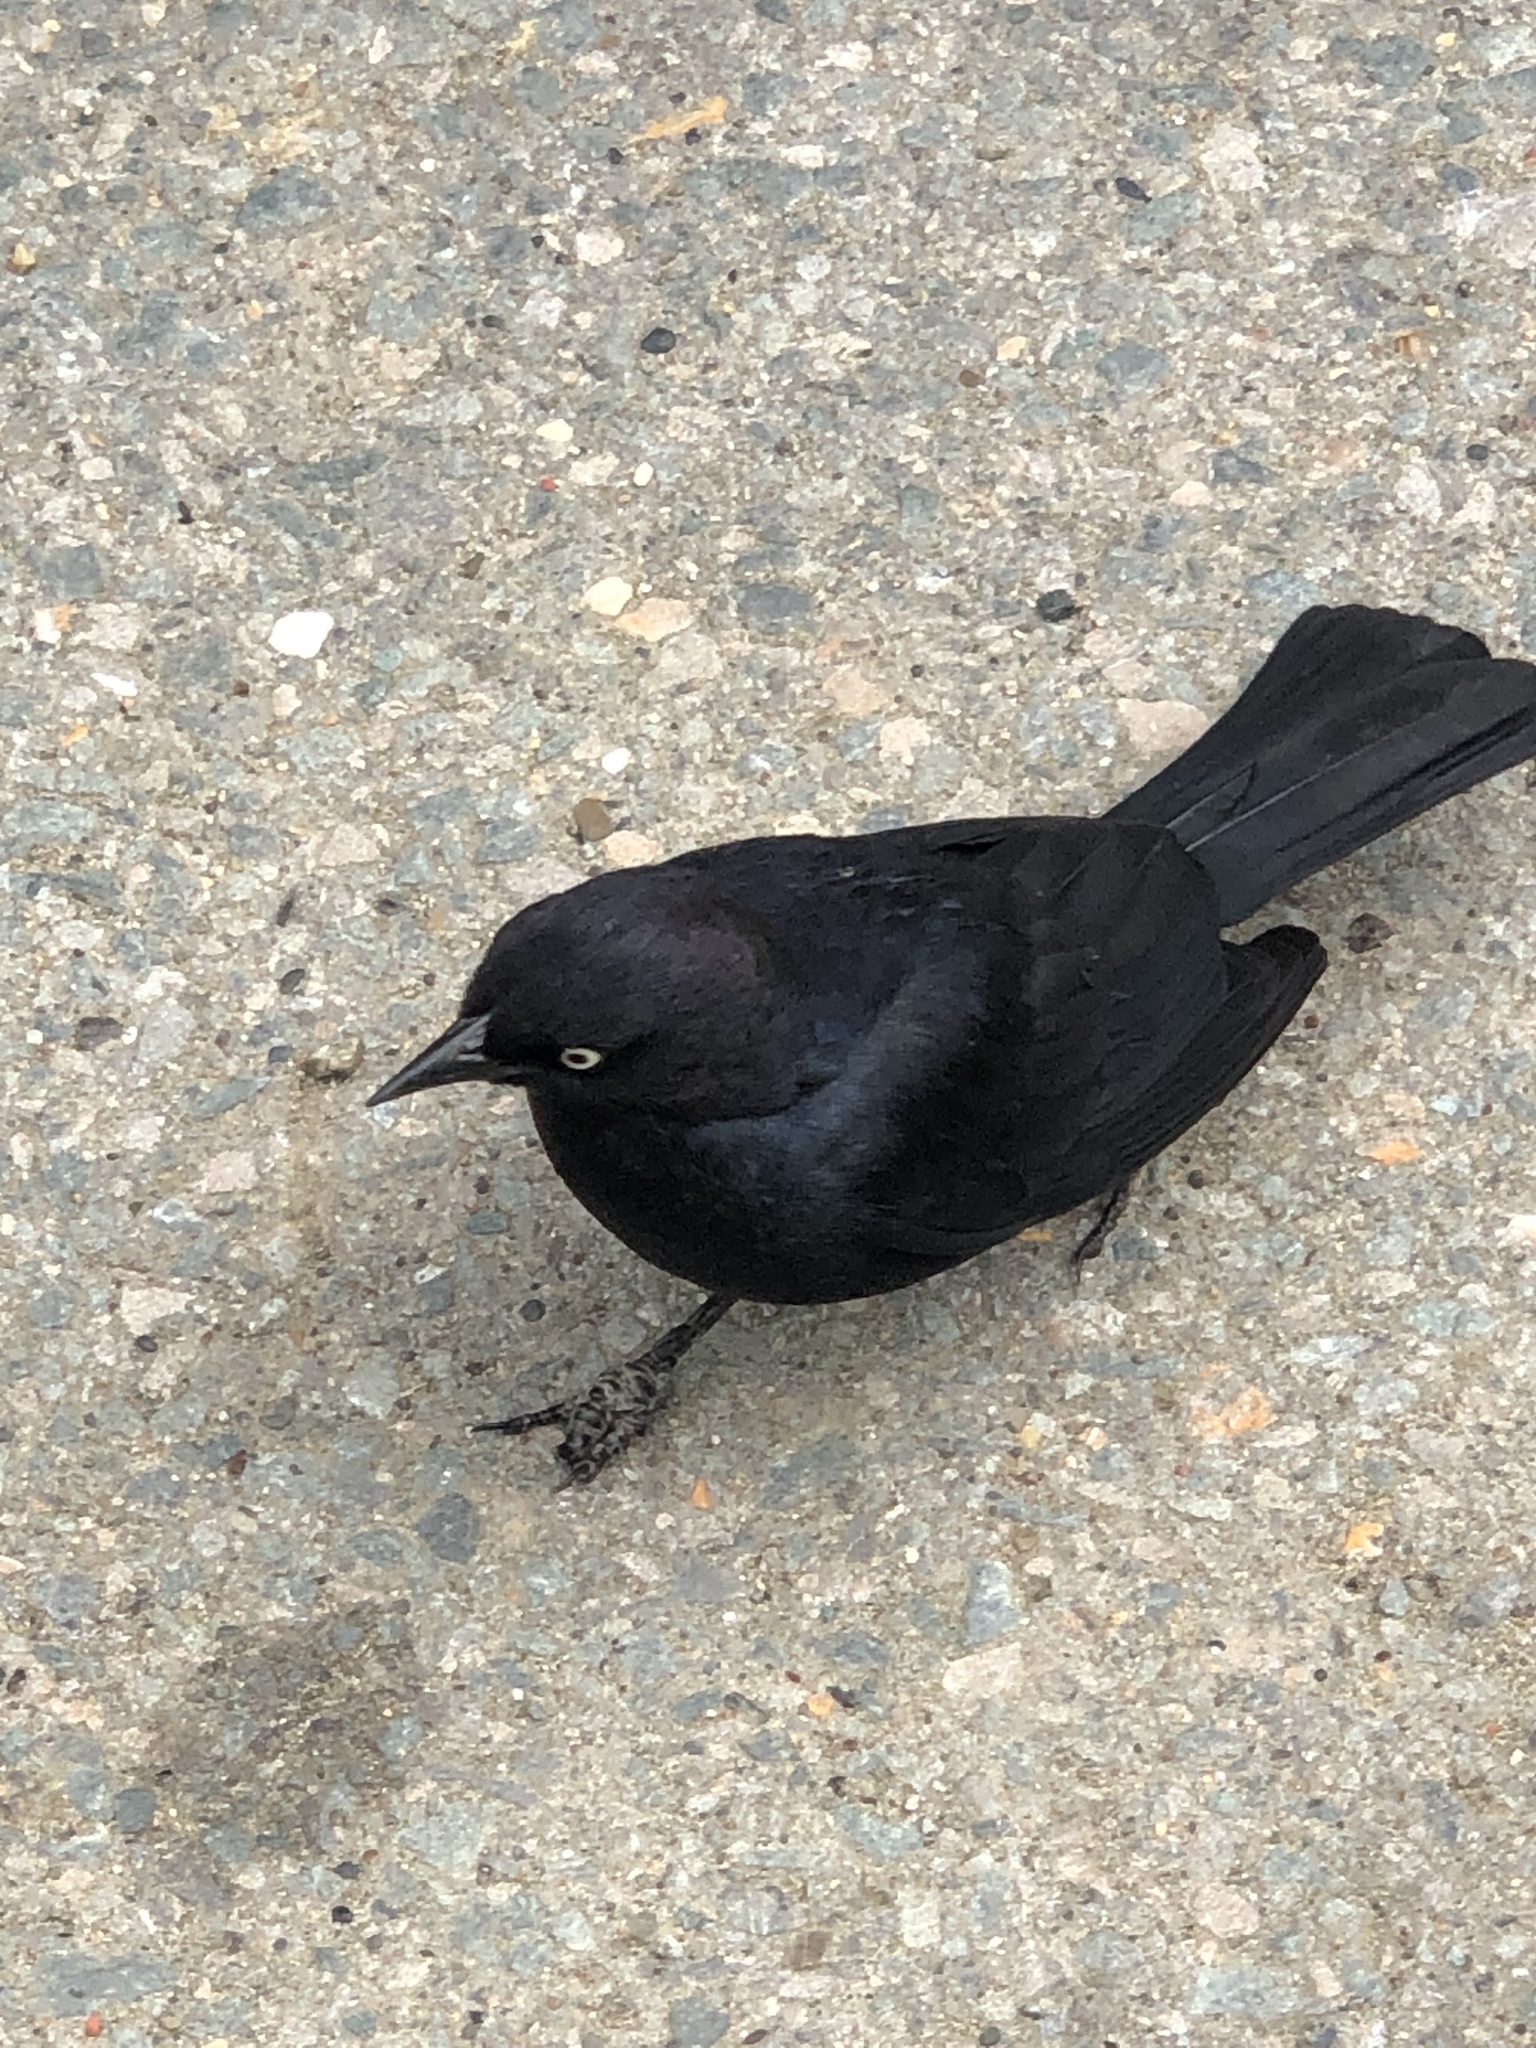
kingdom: Animalia
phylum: Chordata
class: Aves
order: Passeriformes
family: Icteridae
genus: Euphagus
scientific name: Euphagus cyanocephalus
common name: Brewer's blackbird
